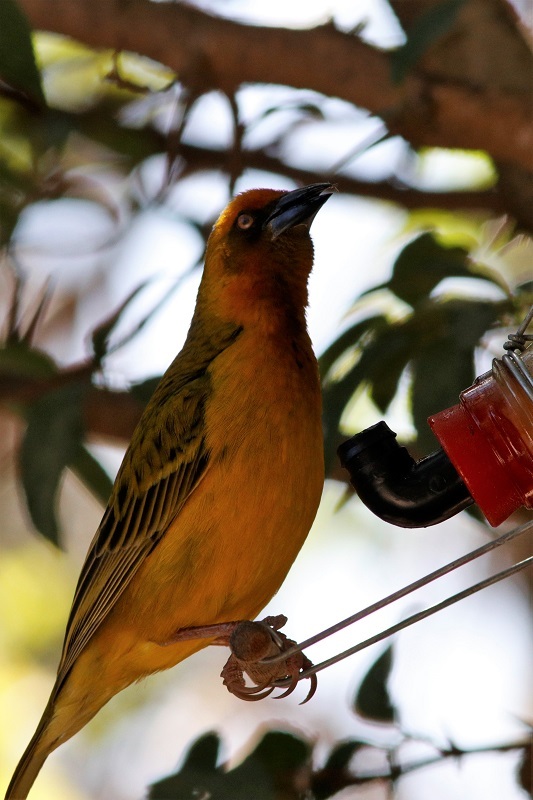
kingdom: Animalia
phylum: Chordata
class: Aves
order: Passeriformes
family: Ploceidae
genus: Ploceus
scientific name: Ploceus capensis
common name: Cape weaver
